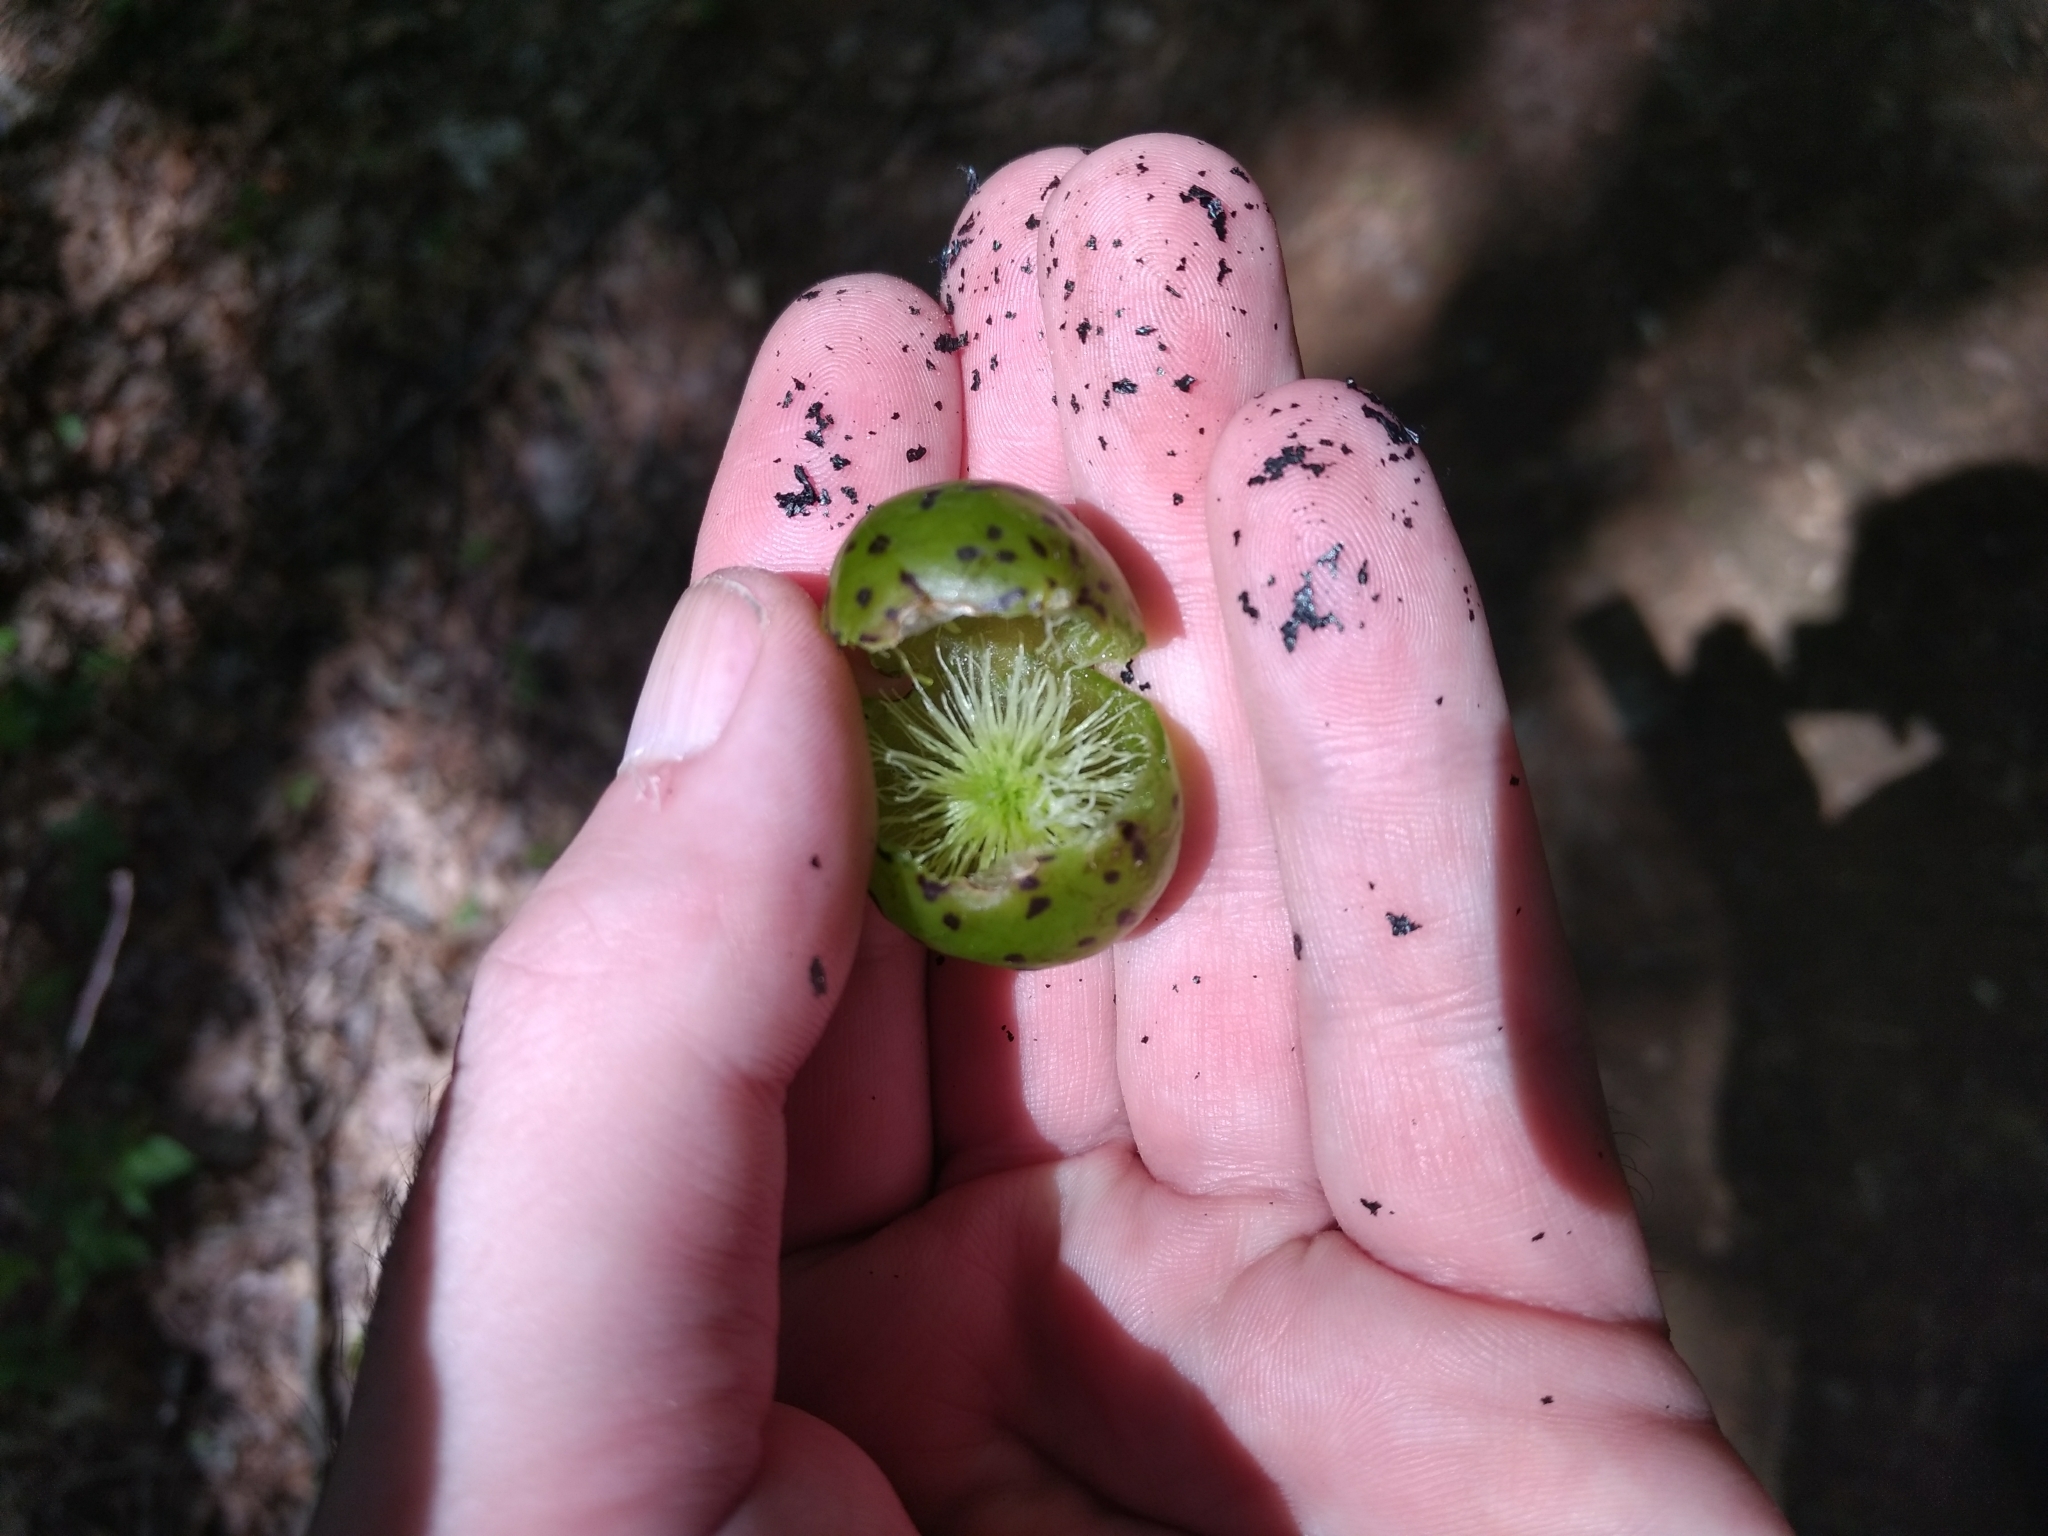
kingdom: Animalia
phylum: Arthropoda
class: Insecta
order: Hymenoptera
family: Cynipidae
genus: Amphibolips
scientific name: Amphibolips
